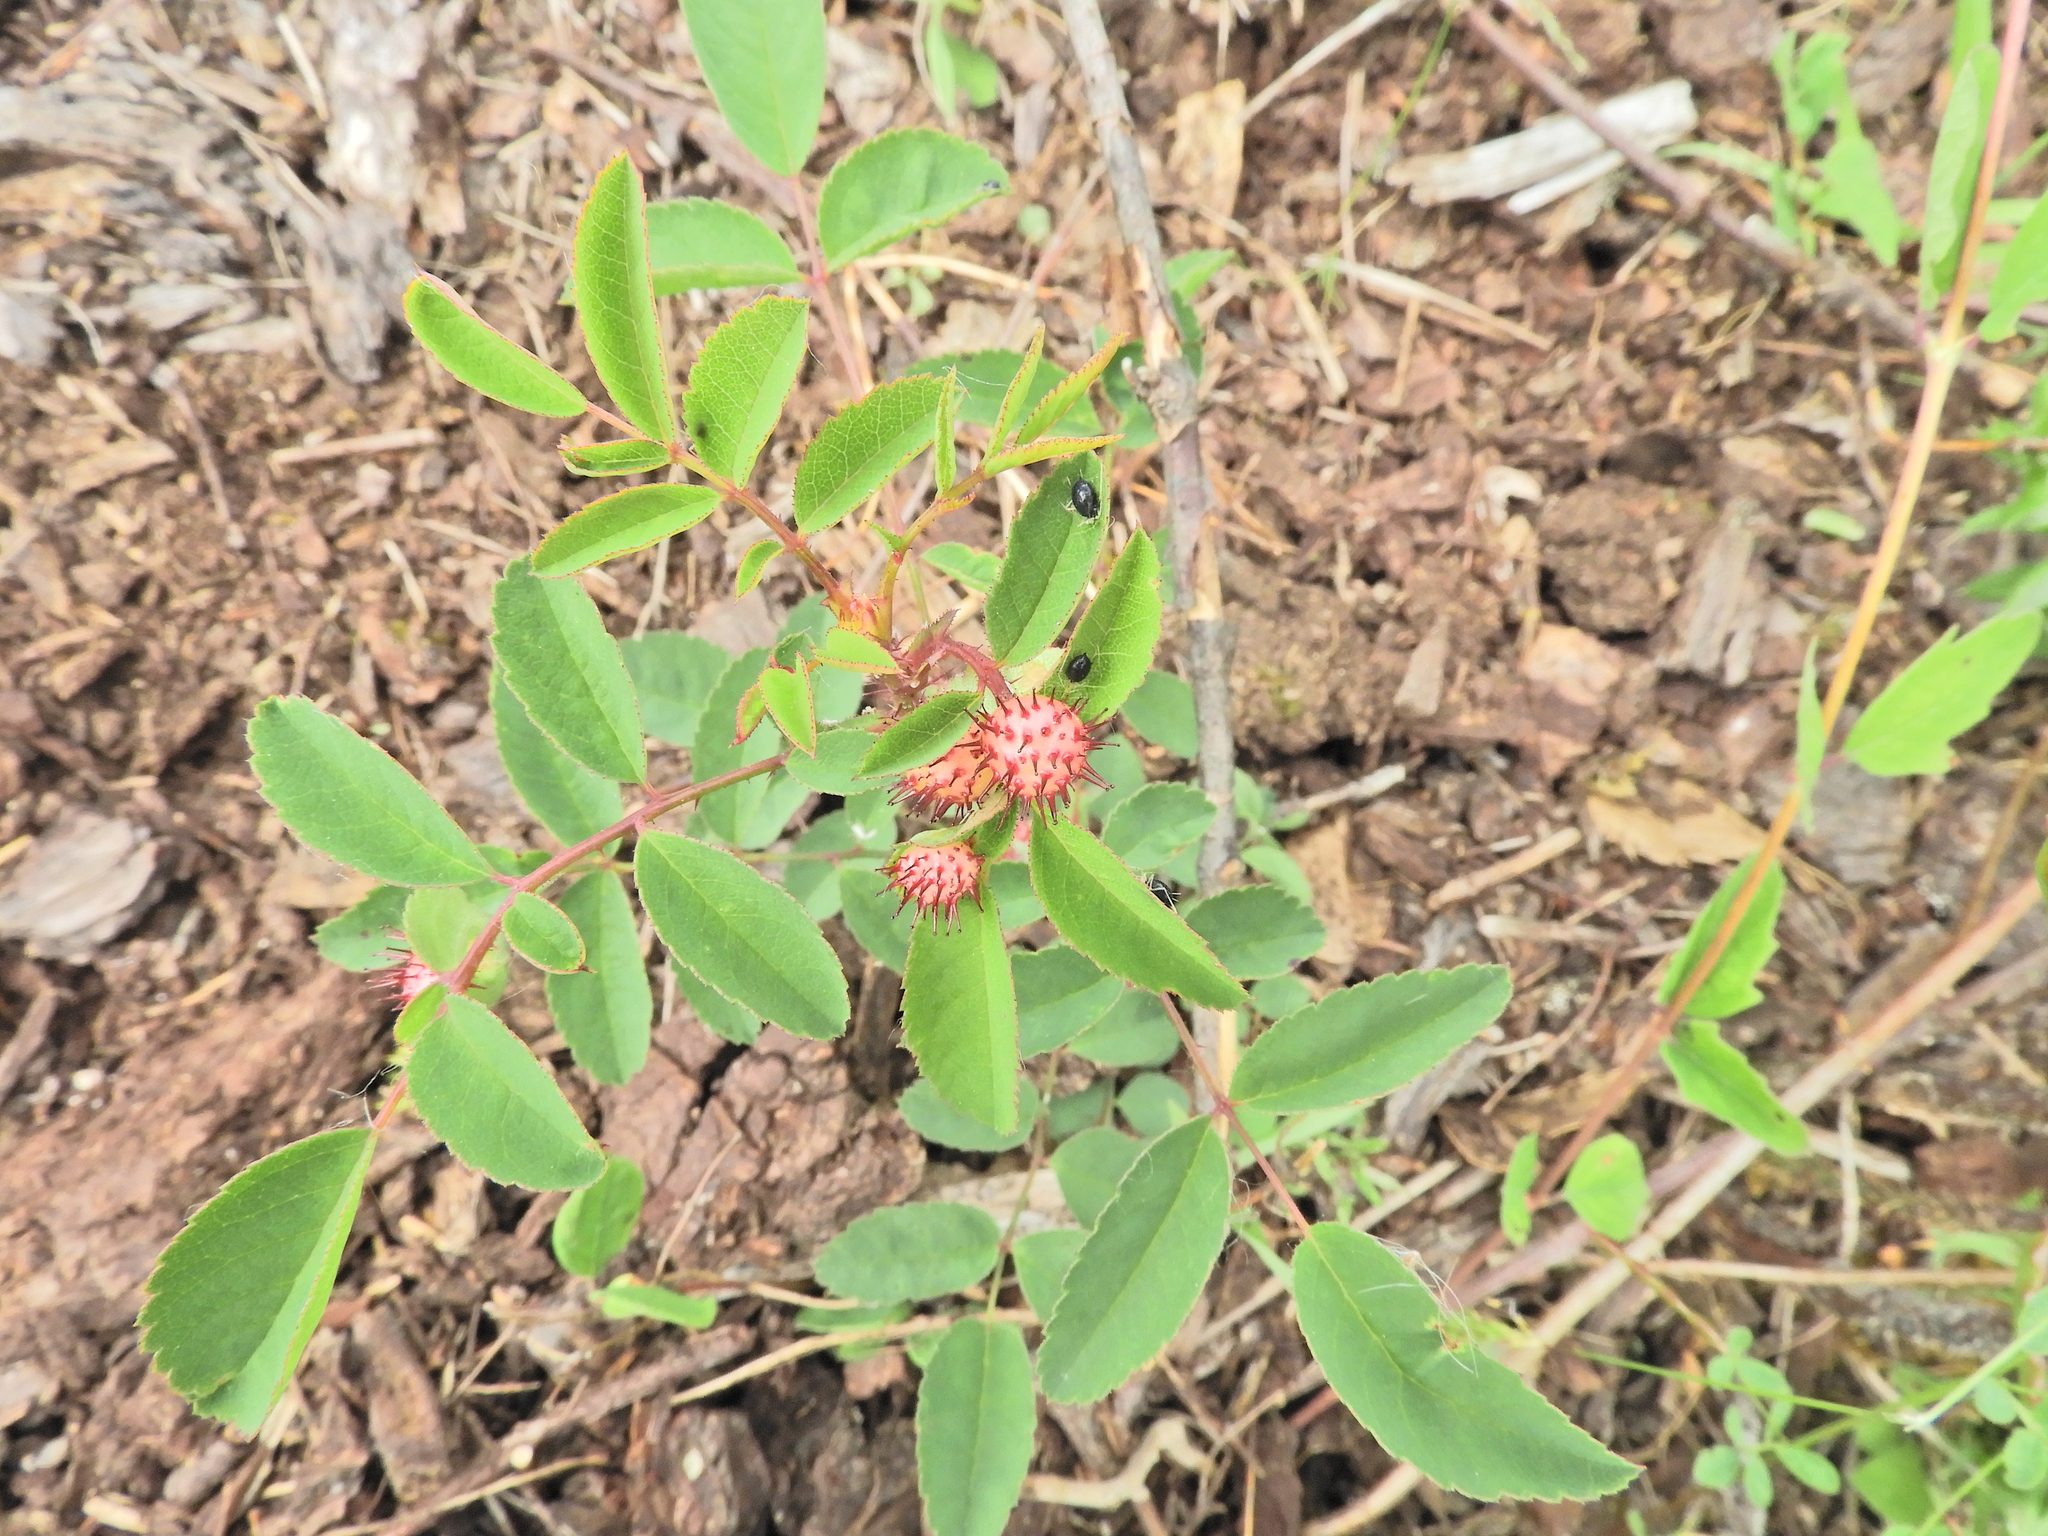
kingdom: Animalia
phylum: Arthropoda
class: Insecta
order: Hymenoptera
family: Cynipidae
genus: Diplolepis
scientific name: Diplolepis polita
